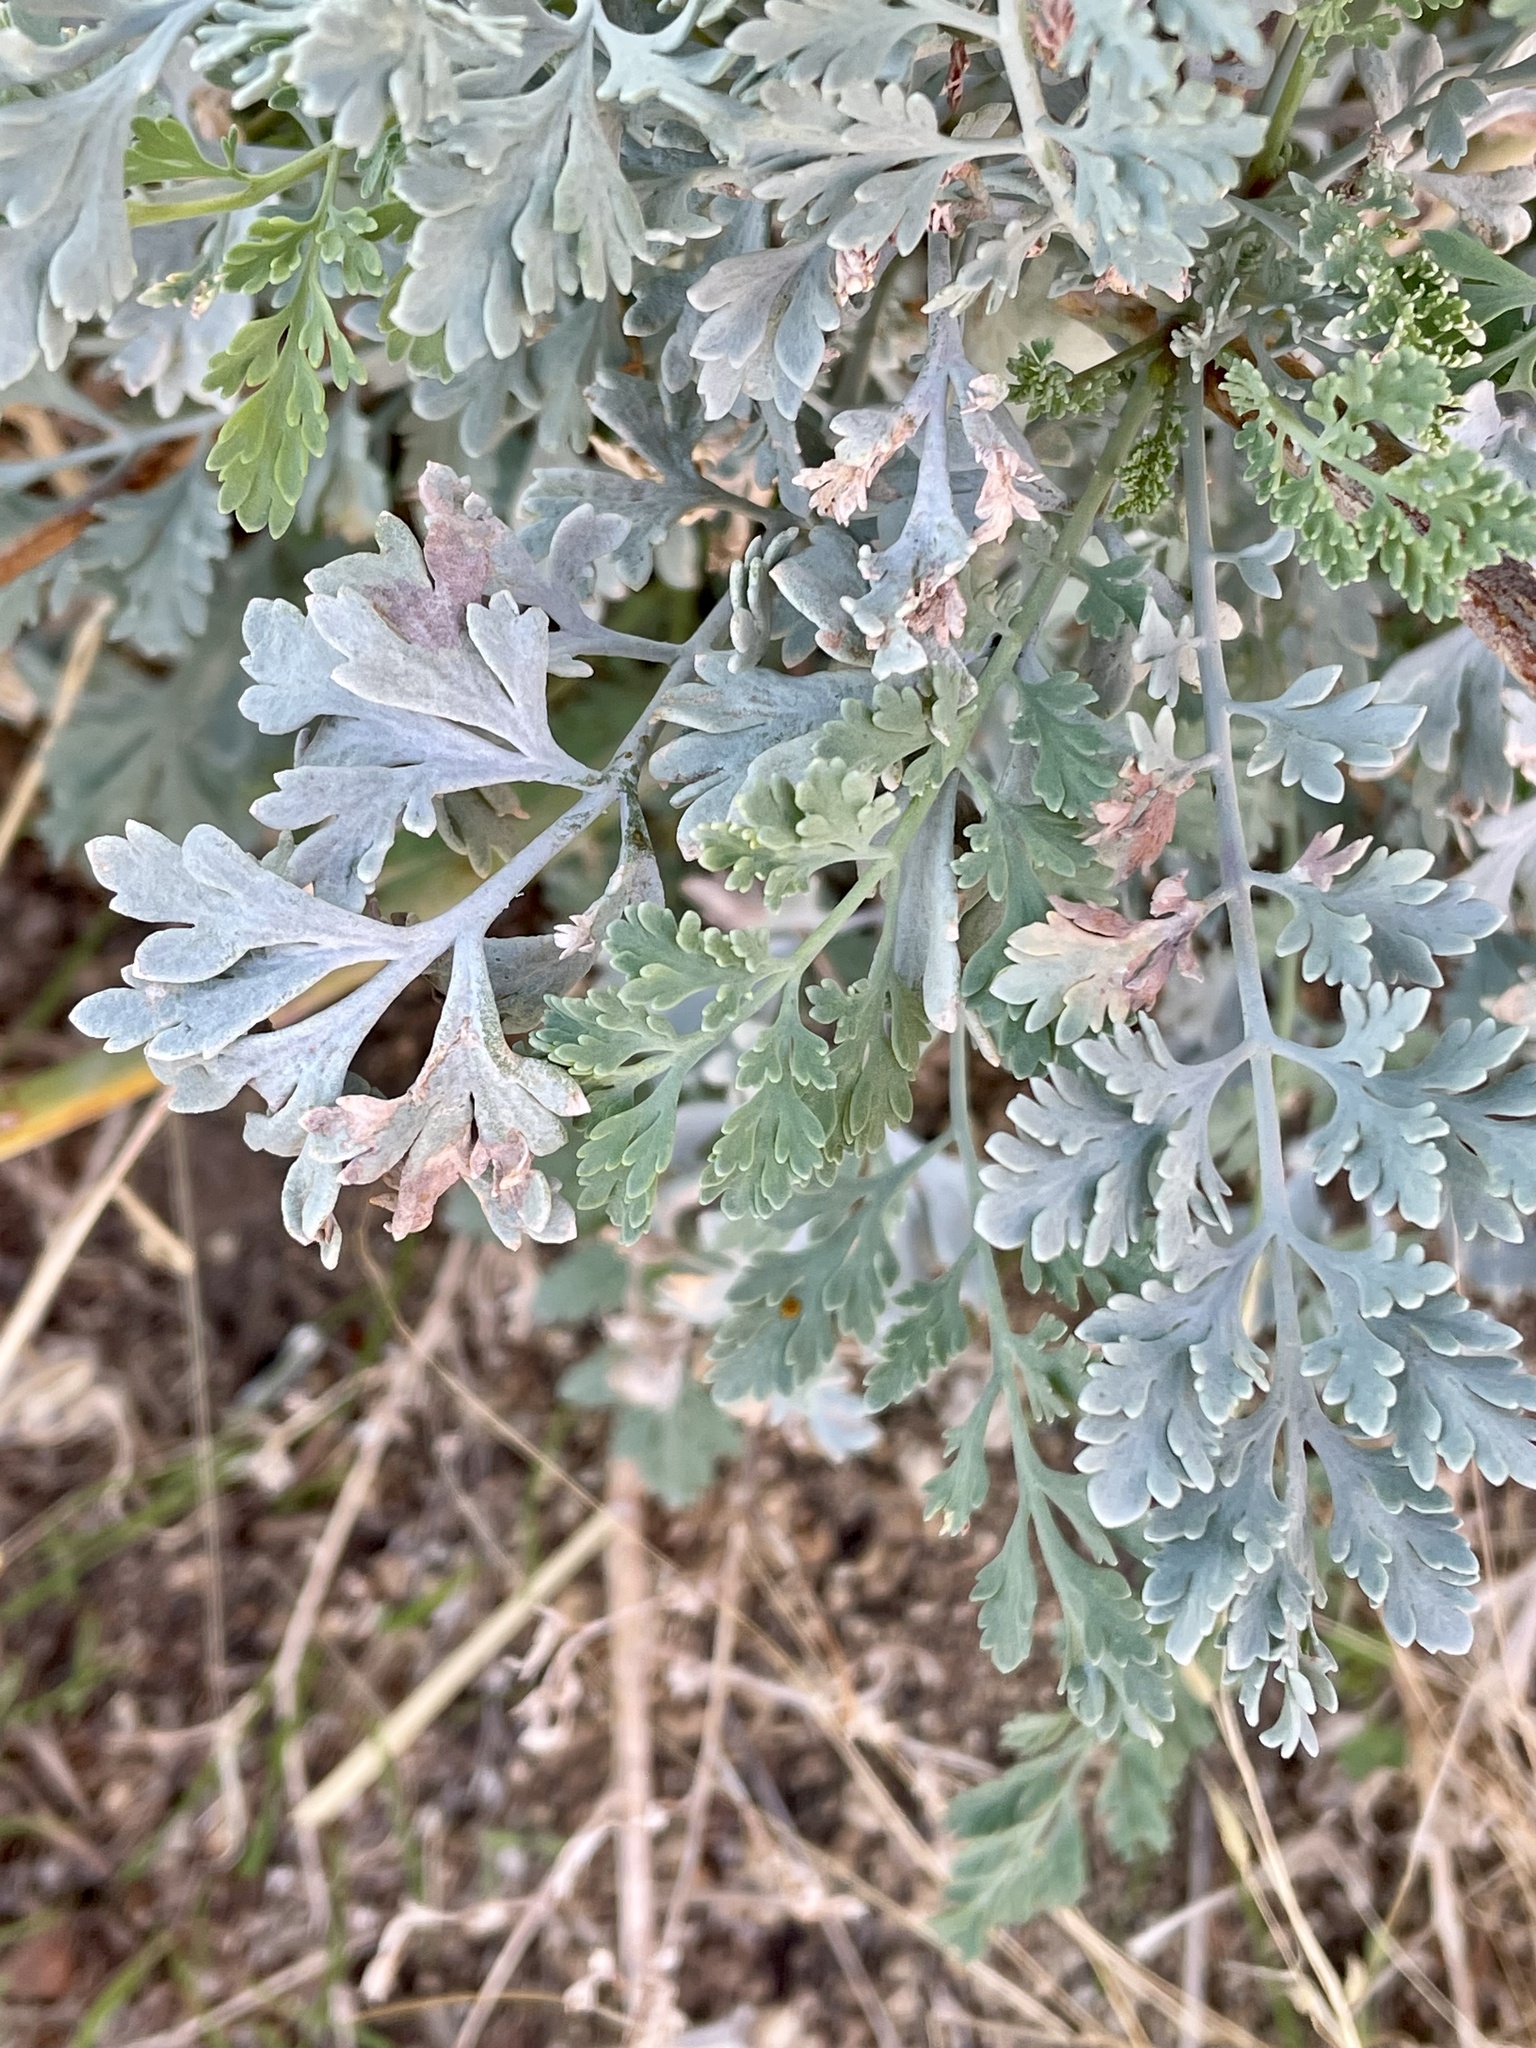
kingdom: Plantae
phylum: Tracheophyta
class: Magnoliopsida
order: Ranunculales
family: Papaveraceae
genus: Ehrendorferia
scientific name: Ehrendorferia chrysantha
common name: Golden eardrops
